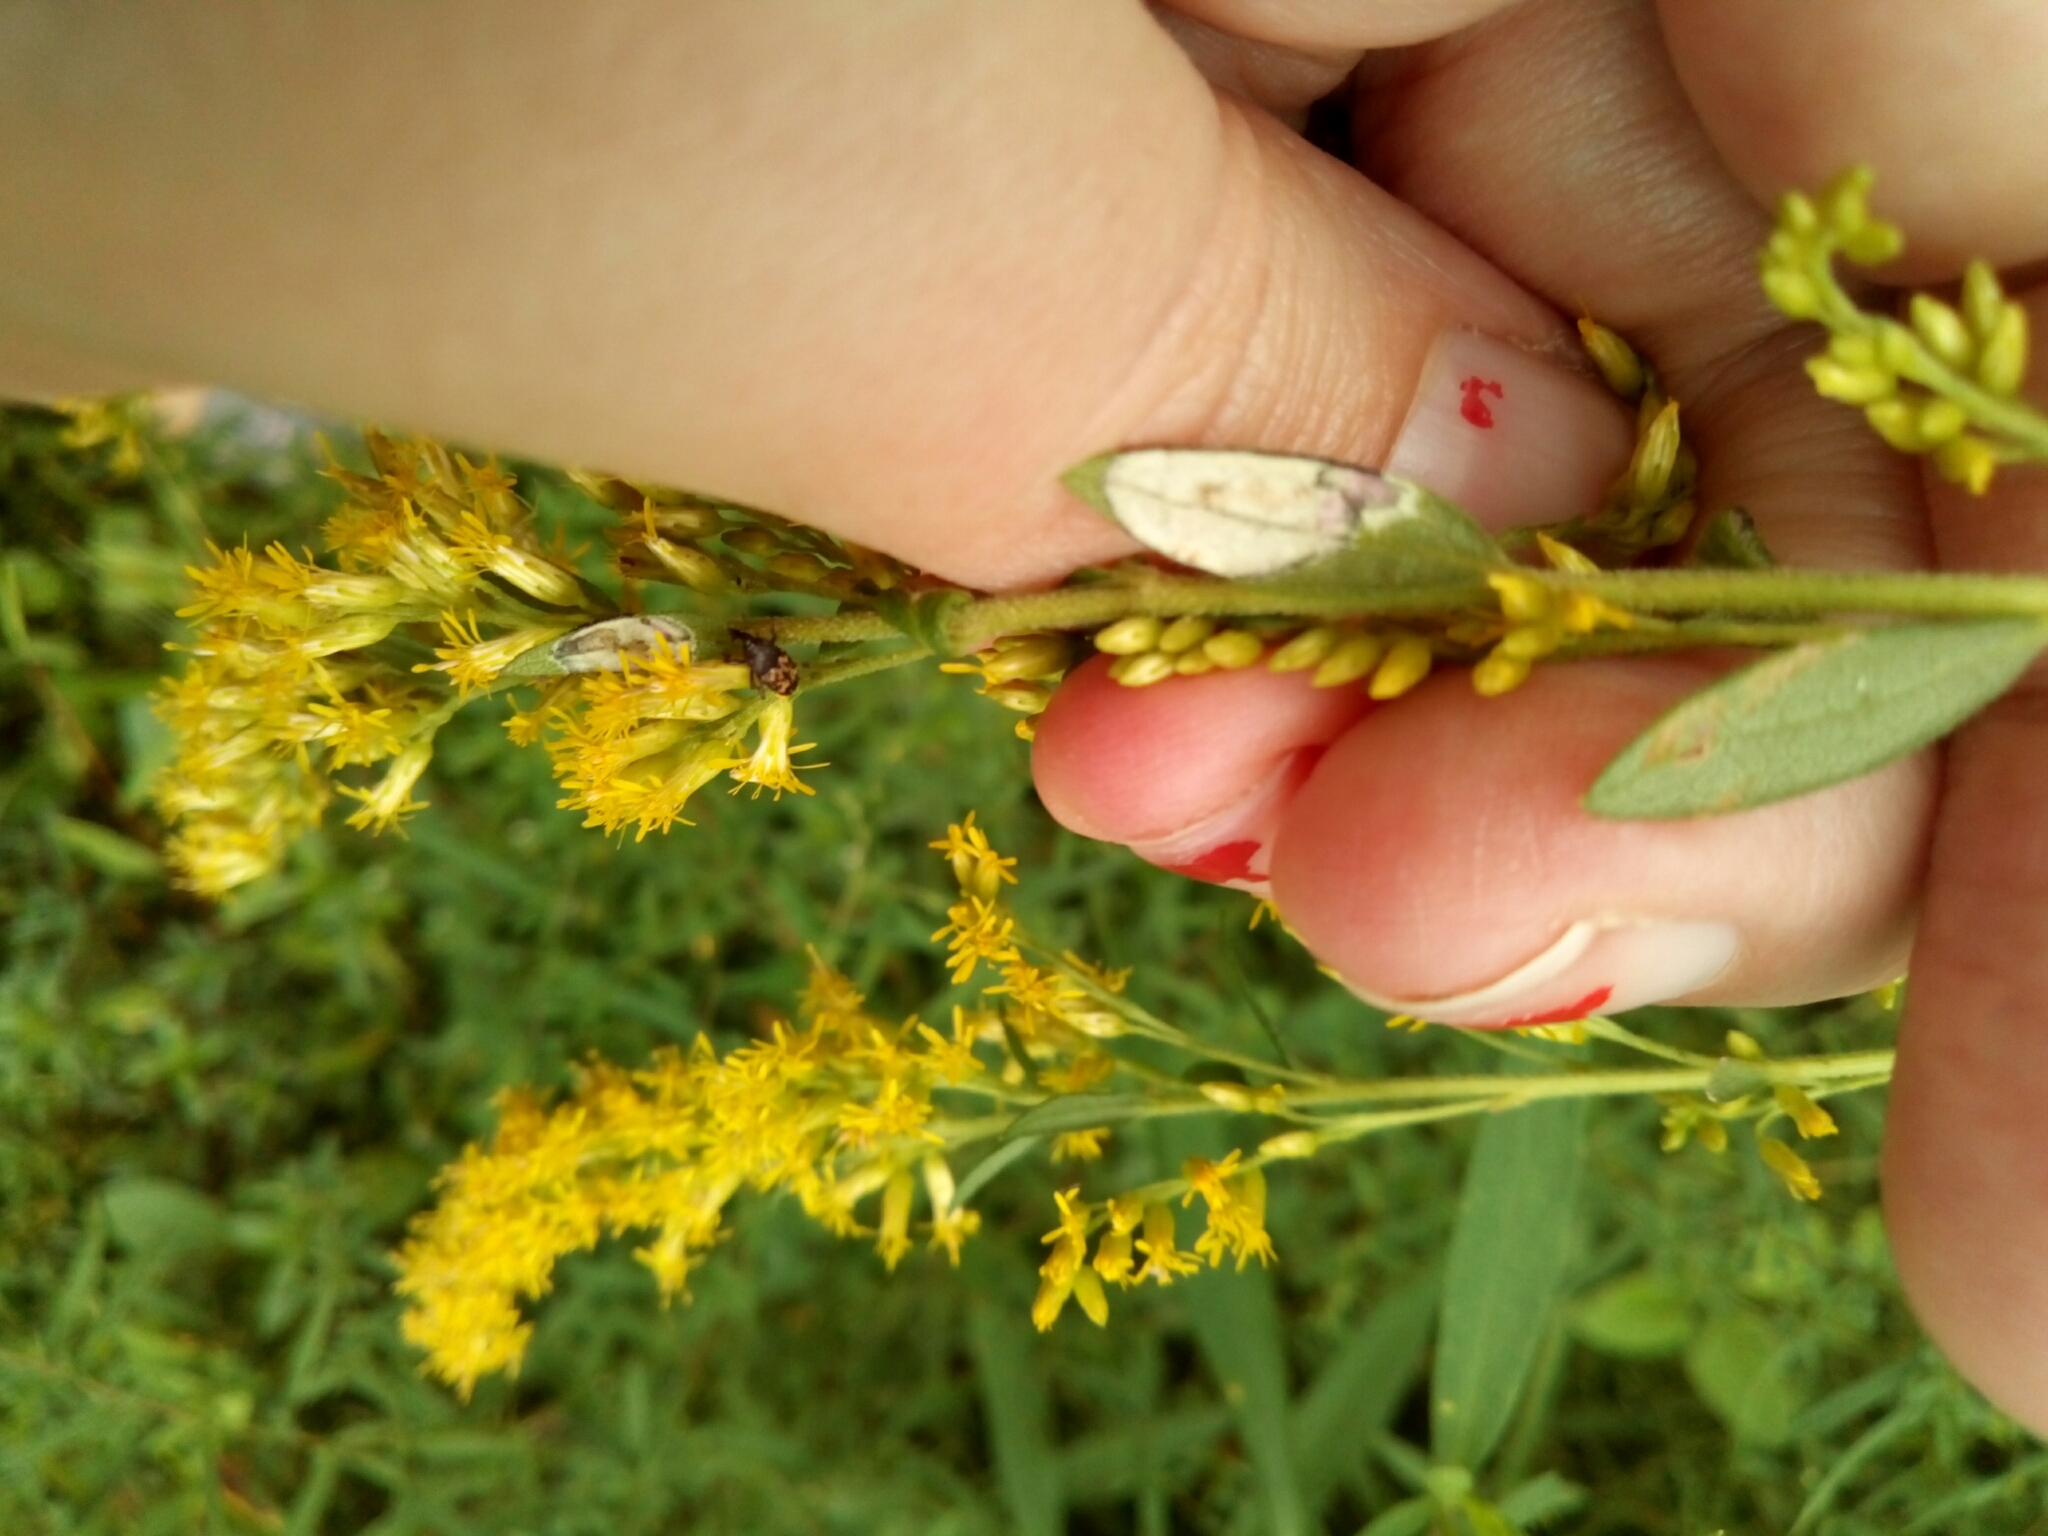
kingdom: Animalia
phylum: Arthropoda
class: Insecta
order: Coleoptera
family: Curculionidae
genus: Glyptobaris
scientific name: Glyptobaris lecontei
